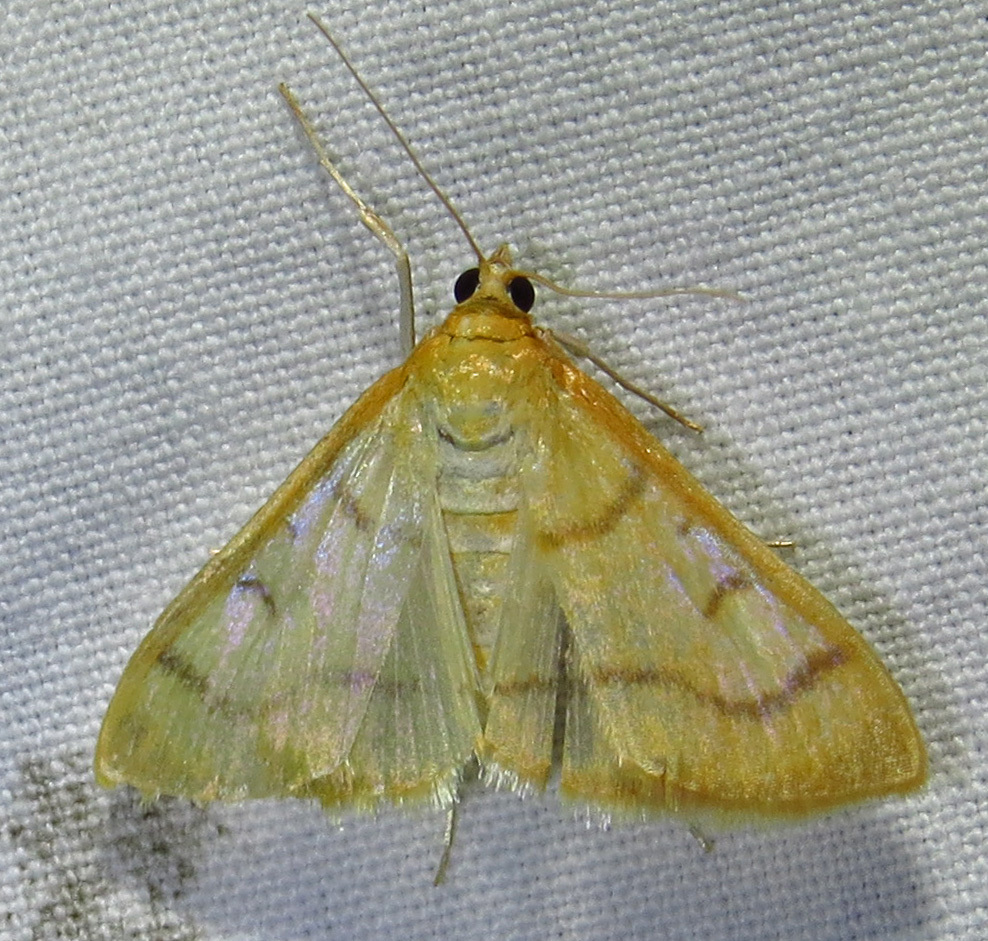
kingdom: Animalia
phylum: Arthropoda
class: Insecta
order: Lepidoptera
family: Crambidae
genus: Neohelvibotys
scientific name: Neohelvibotys neohelvialis
